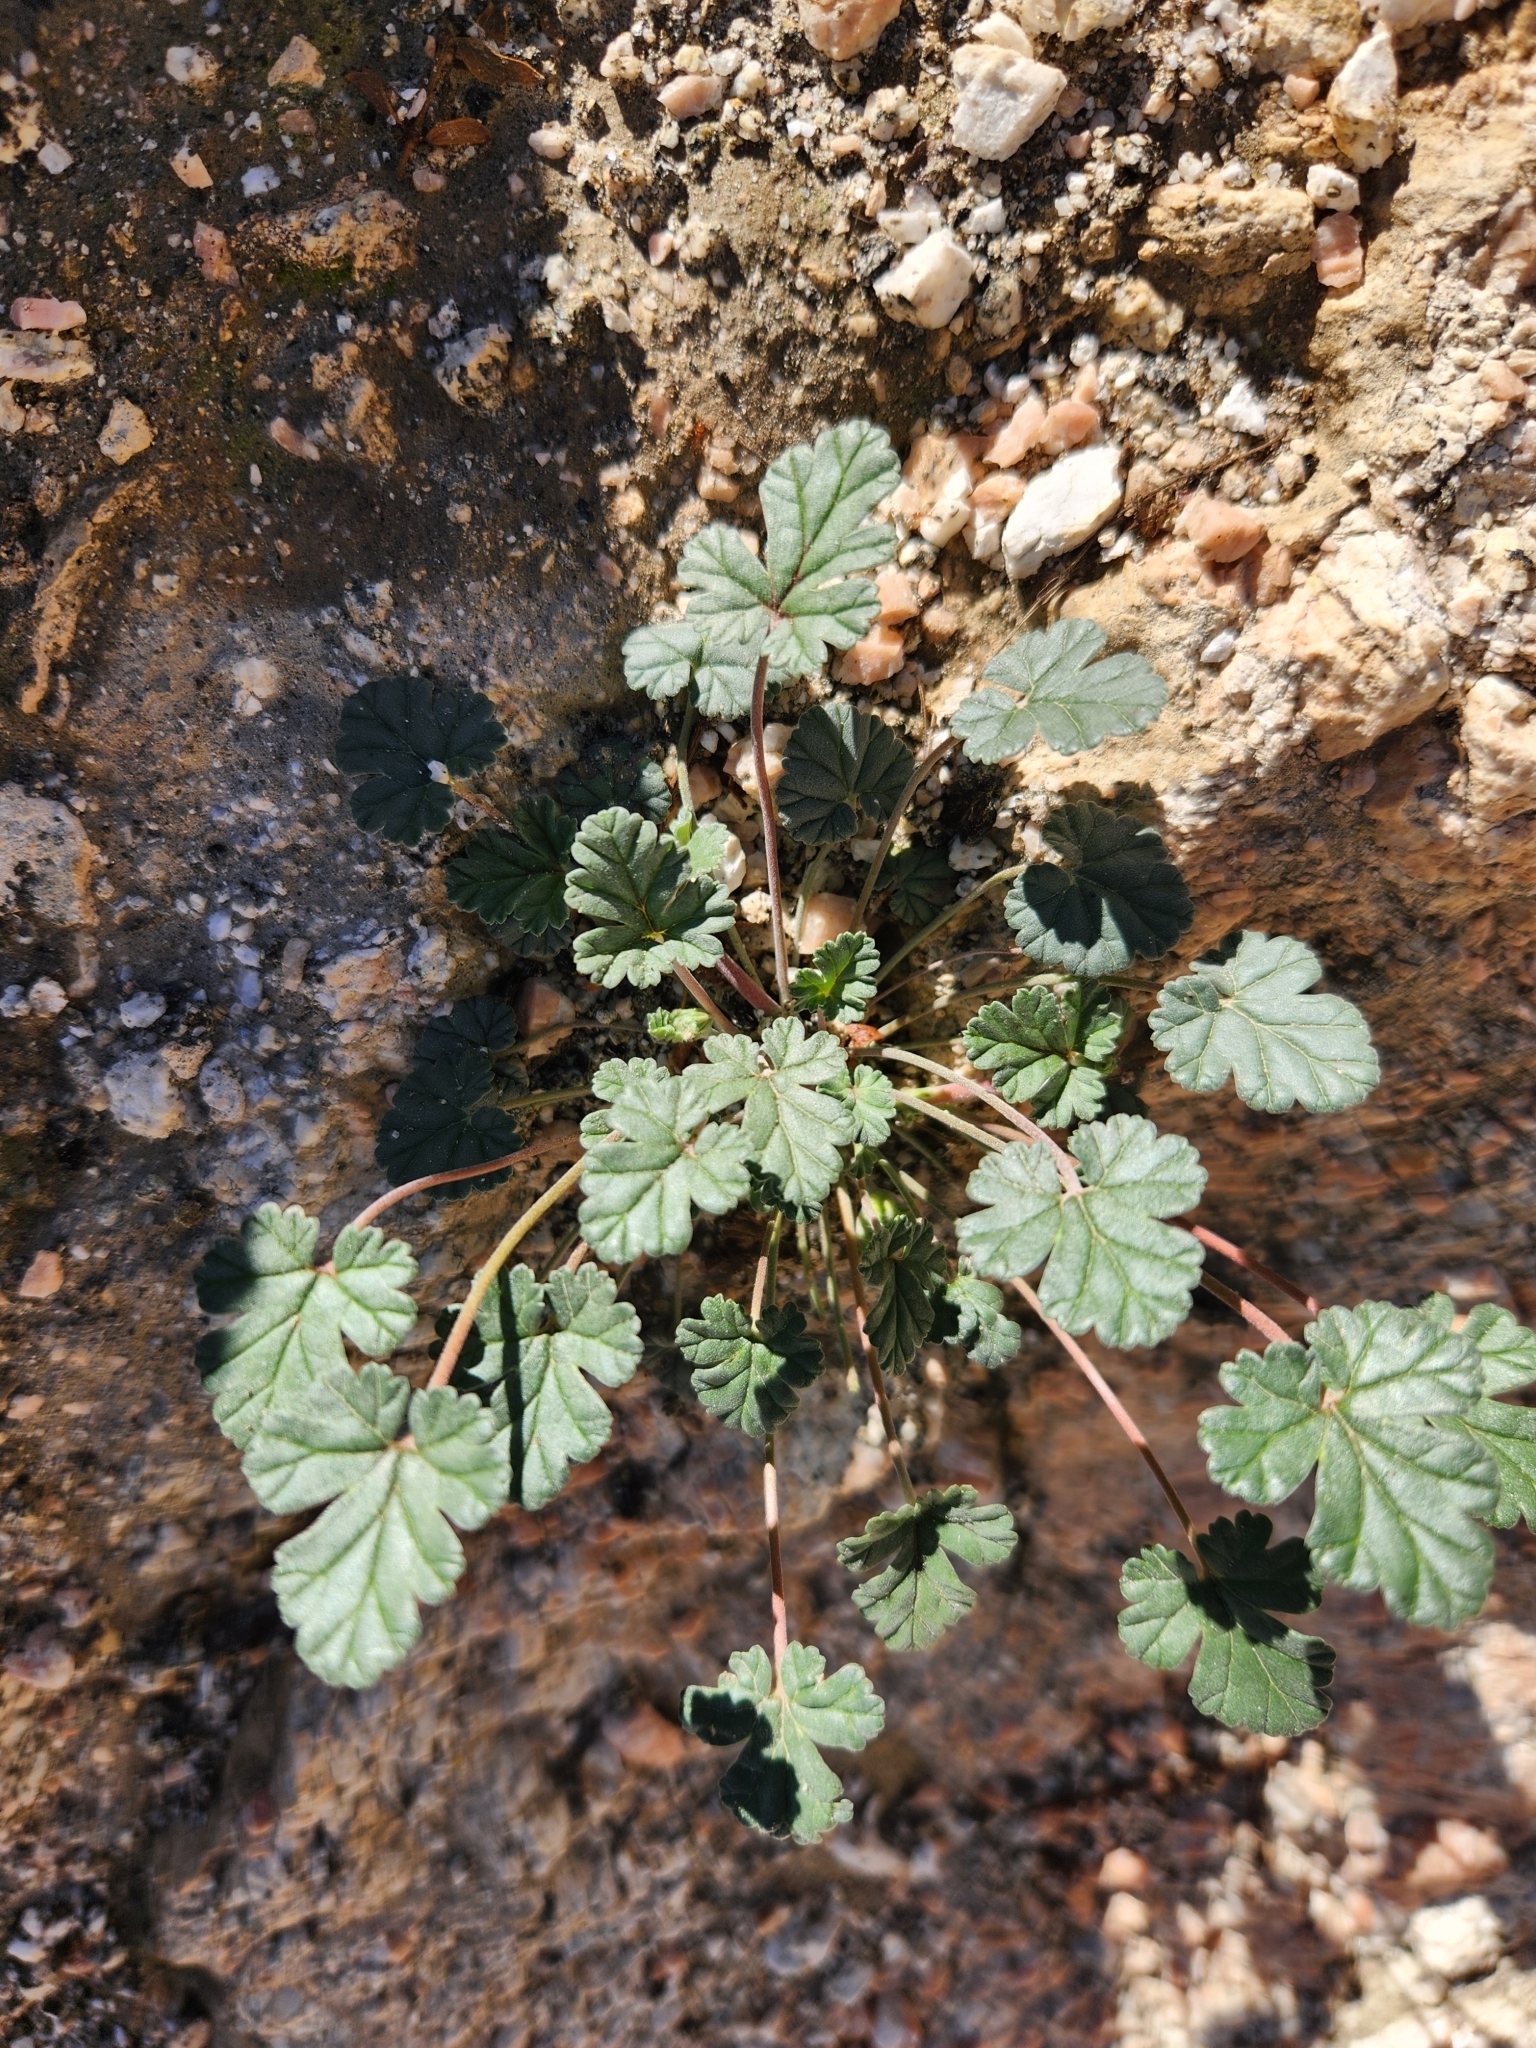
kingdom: Plantae
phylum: Tracheophyta
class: Magnoliopsida
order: Geraniales
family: Geraniaceae
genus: Erodium
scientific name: Erodium texanum
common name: Texas stork's-bill
